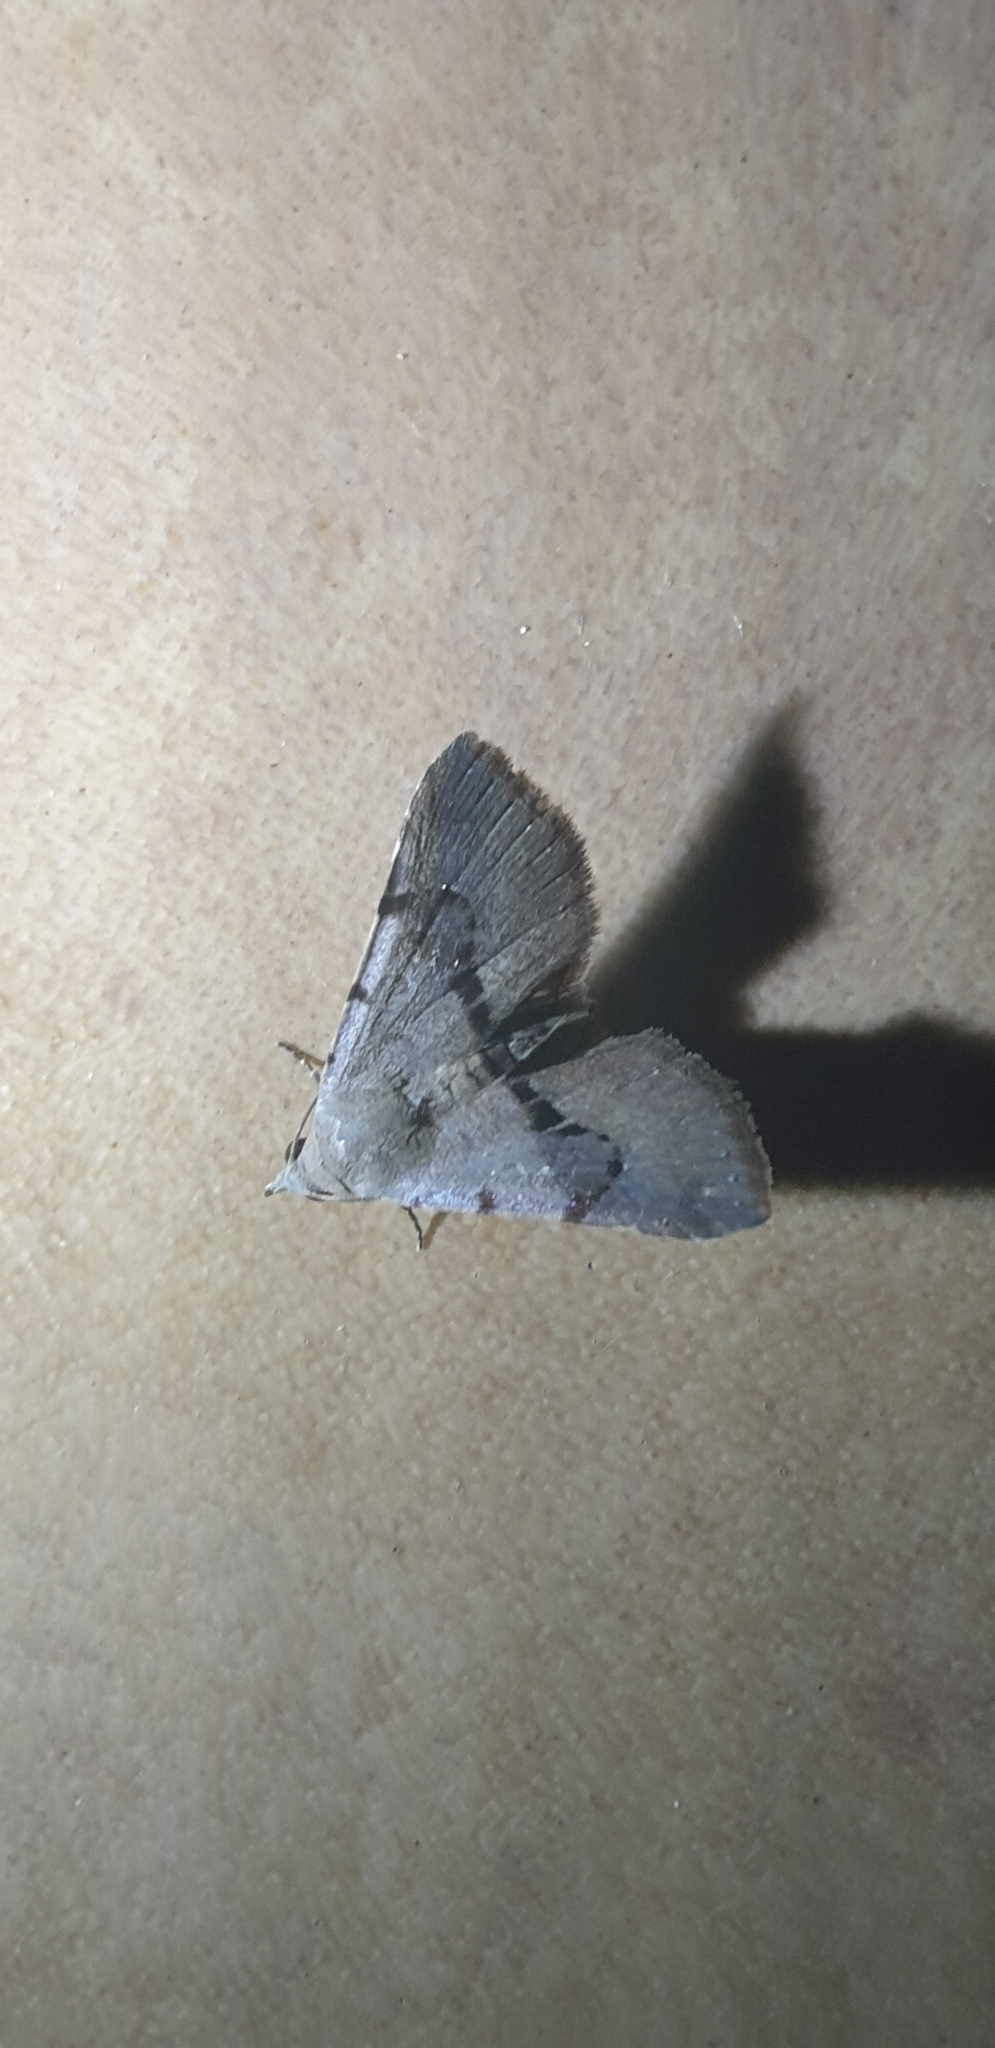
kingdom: Animalia
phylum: Arthropoda
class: Insecta
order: Lepidoptera
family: Erebidae
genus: Pantydia
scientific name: Pantydia sparsa
